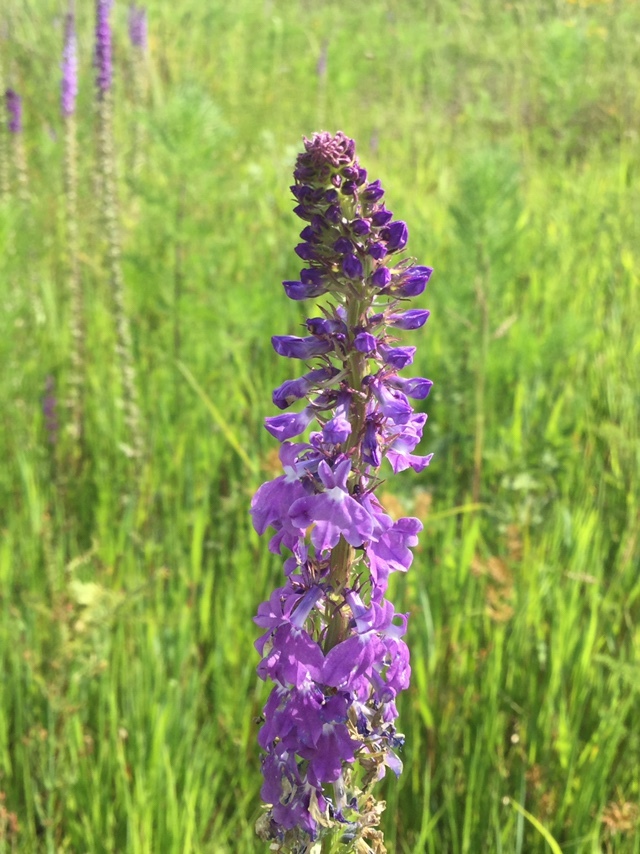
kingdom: Plantae
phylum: Tracheophyta
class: Magnoliopsida
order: Asterales
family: Campanulaceae
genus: Lobelia
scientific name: Lobelia fenestralis
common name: Leafy lobelia
